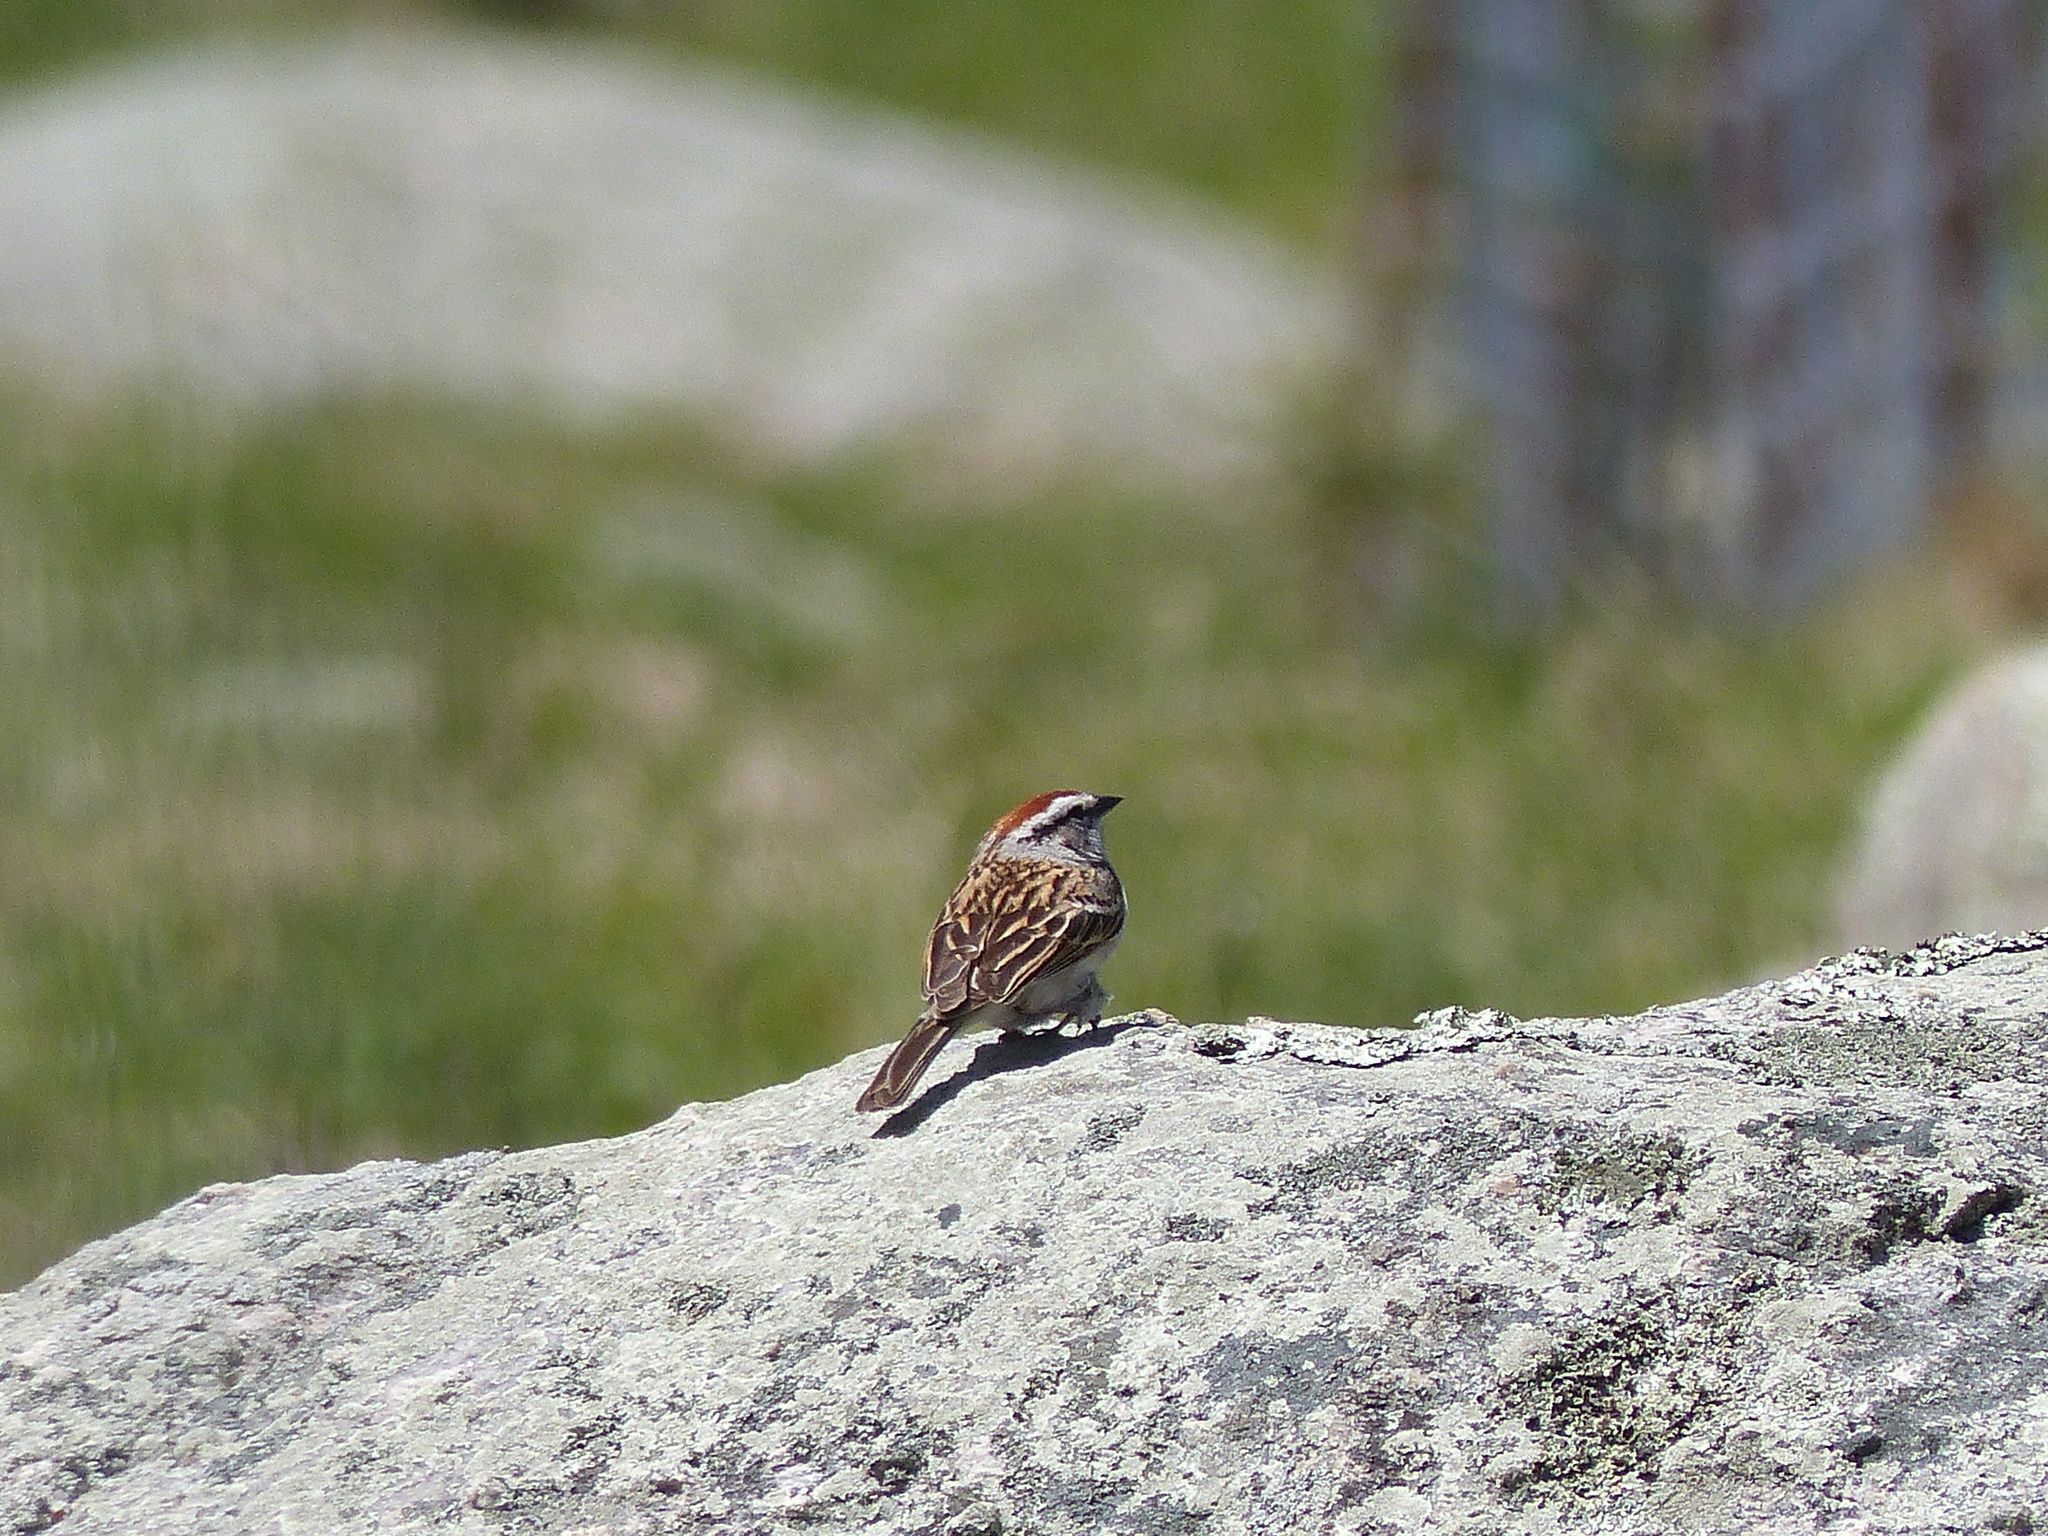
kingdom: Animalia
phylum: Chordata
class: Aves
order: Passeriformes
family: Passerellidae
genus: Spizella
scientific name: Spizella passerina
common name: Chipping sparrow
